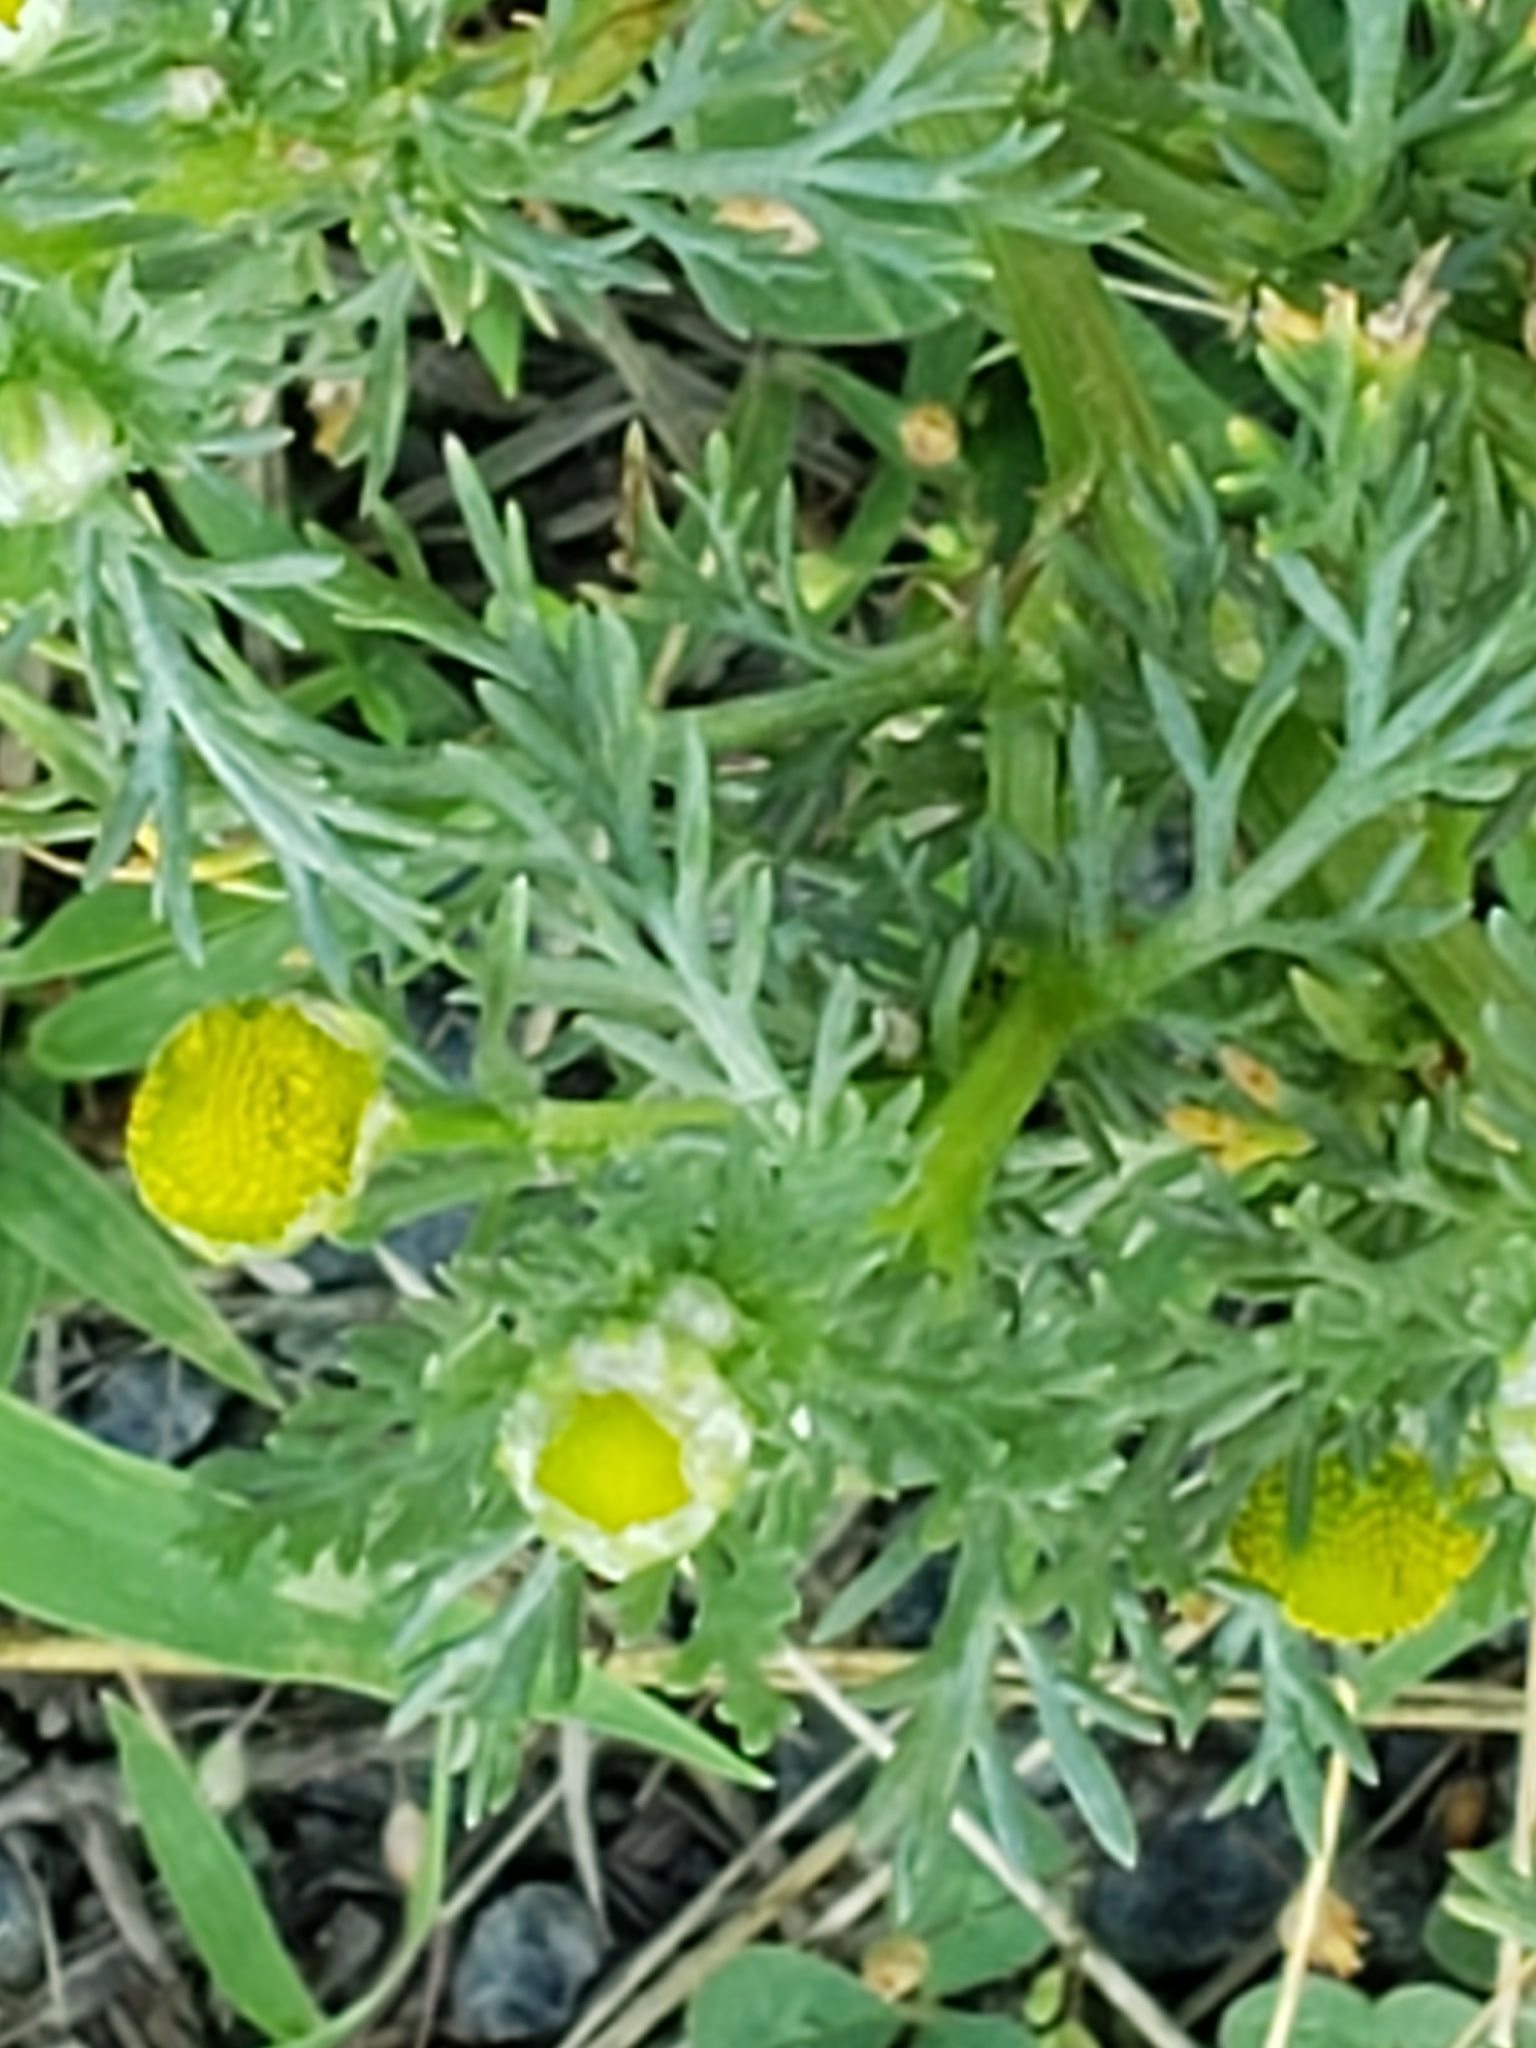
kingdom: Plantae
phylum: Tracheophyta
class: Magnoliopsida
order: Asterales
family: Asteraceae
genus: Matricaria
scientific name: Matricaria discoidea
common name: Disc mayweed
